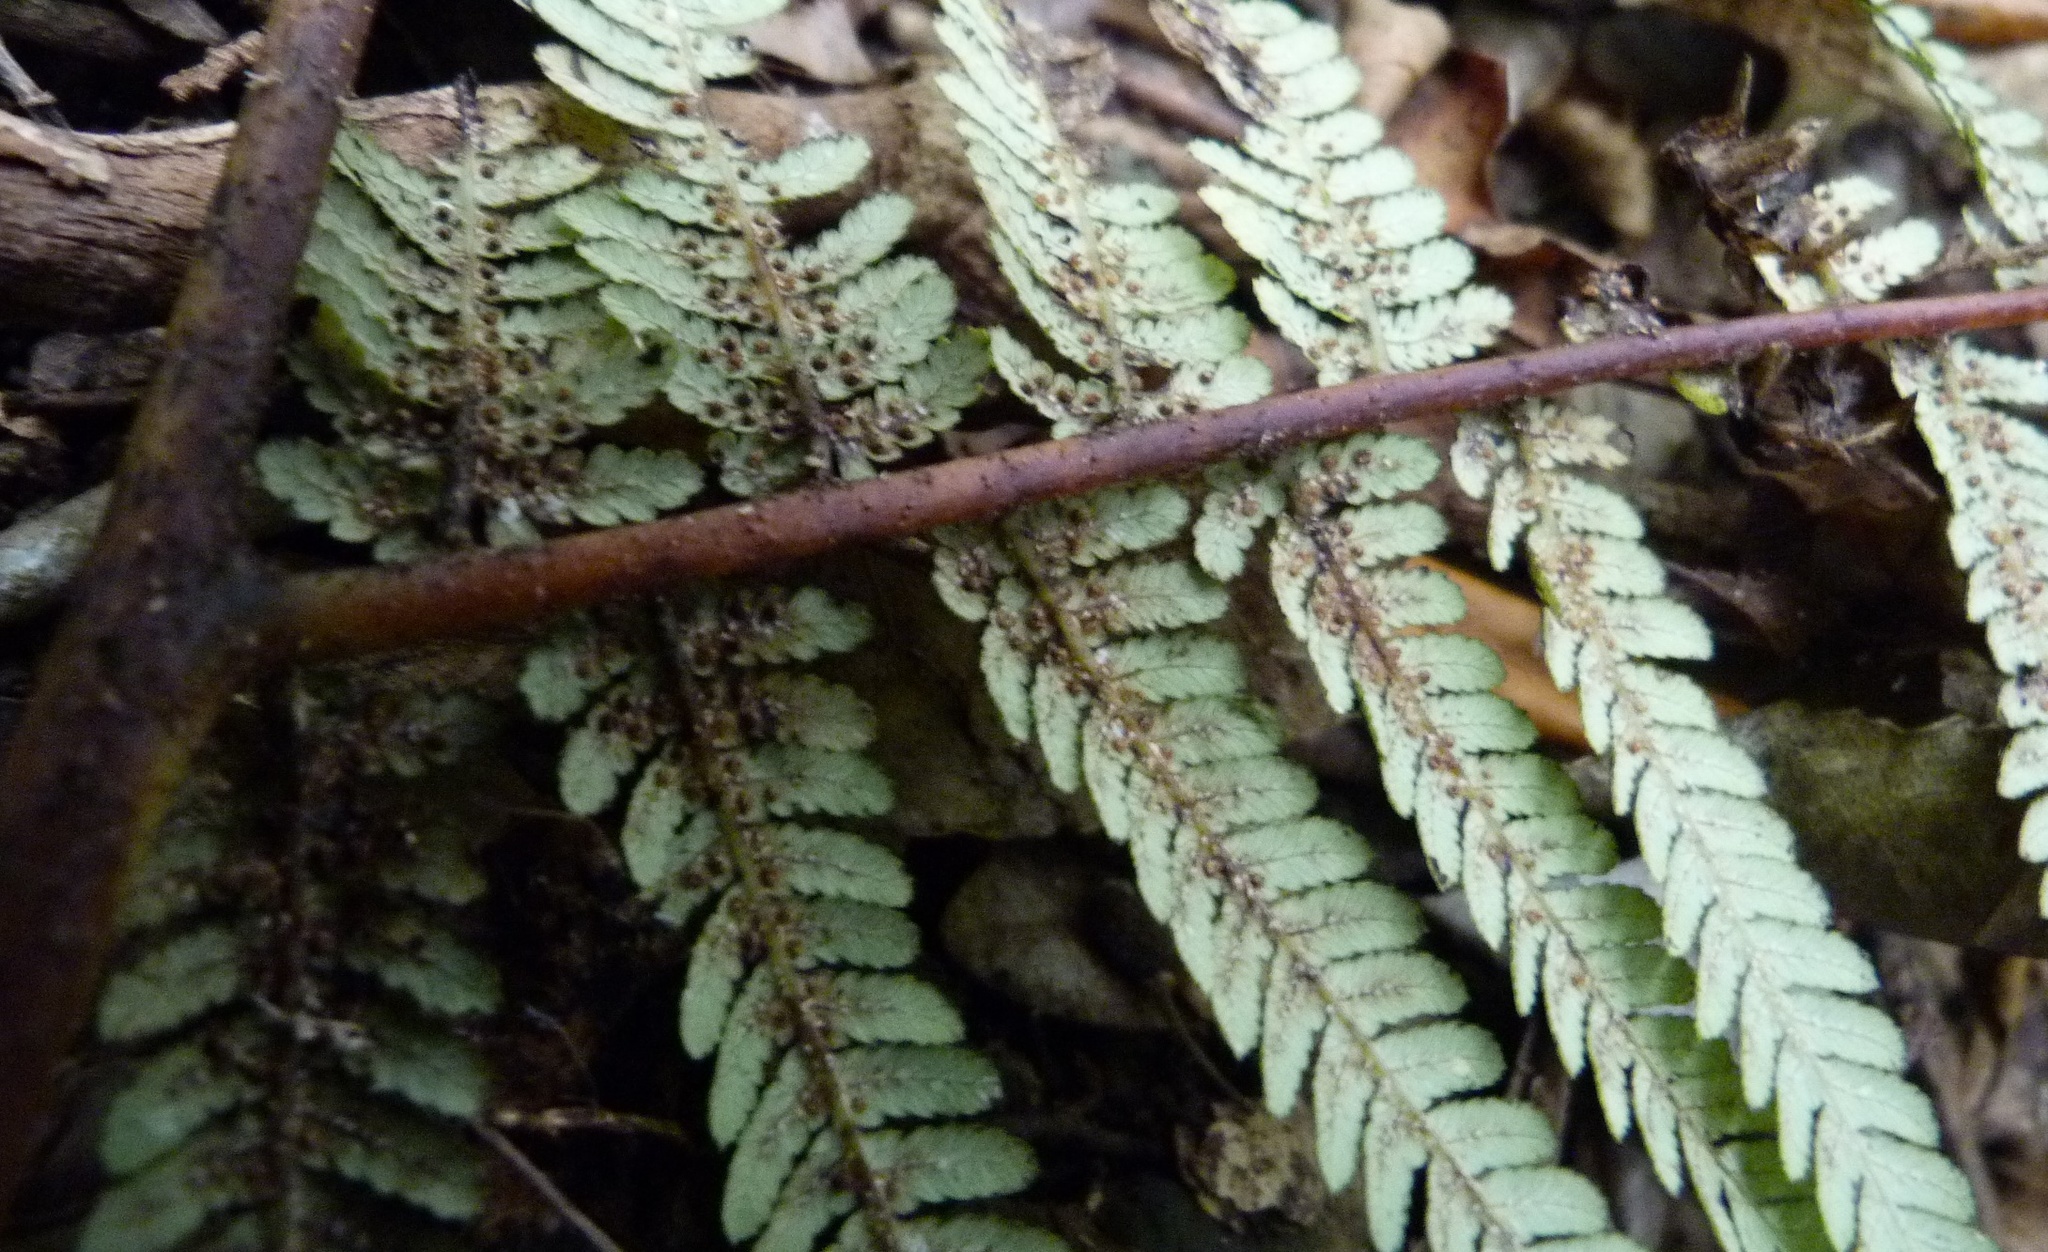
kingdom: Plantae
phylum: Tracheophyta
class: Polypodiopsida
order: Cyatheales
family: Cyatheaceae
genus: Sphaeropteris
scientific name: Sphaeropteris medullaris
